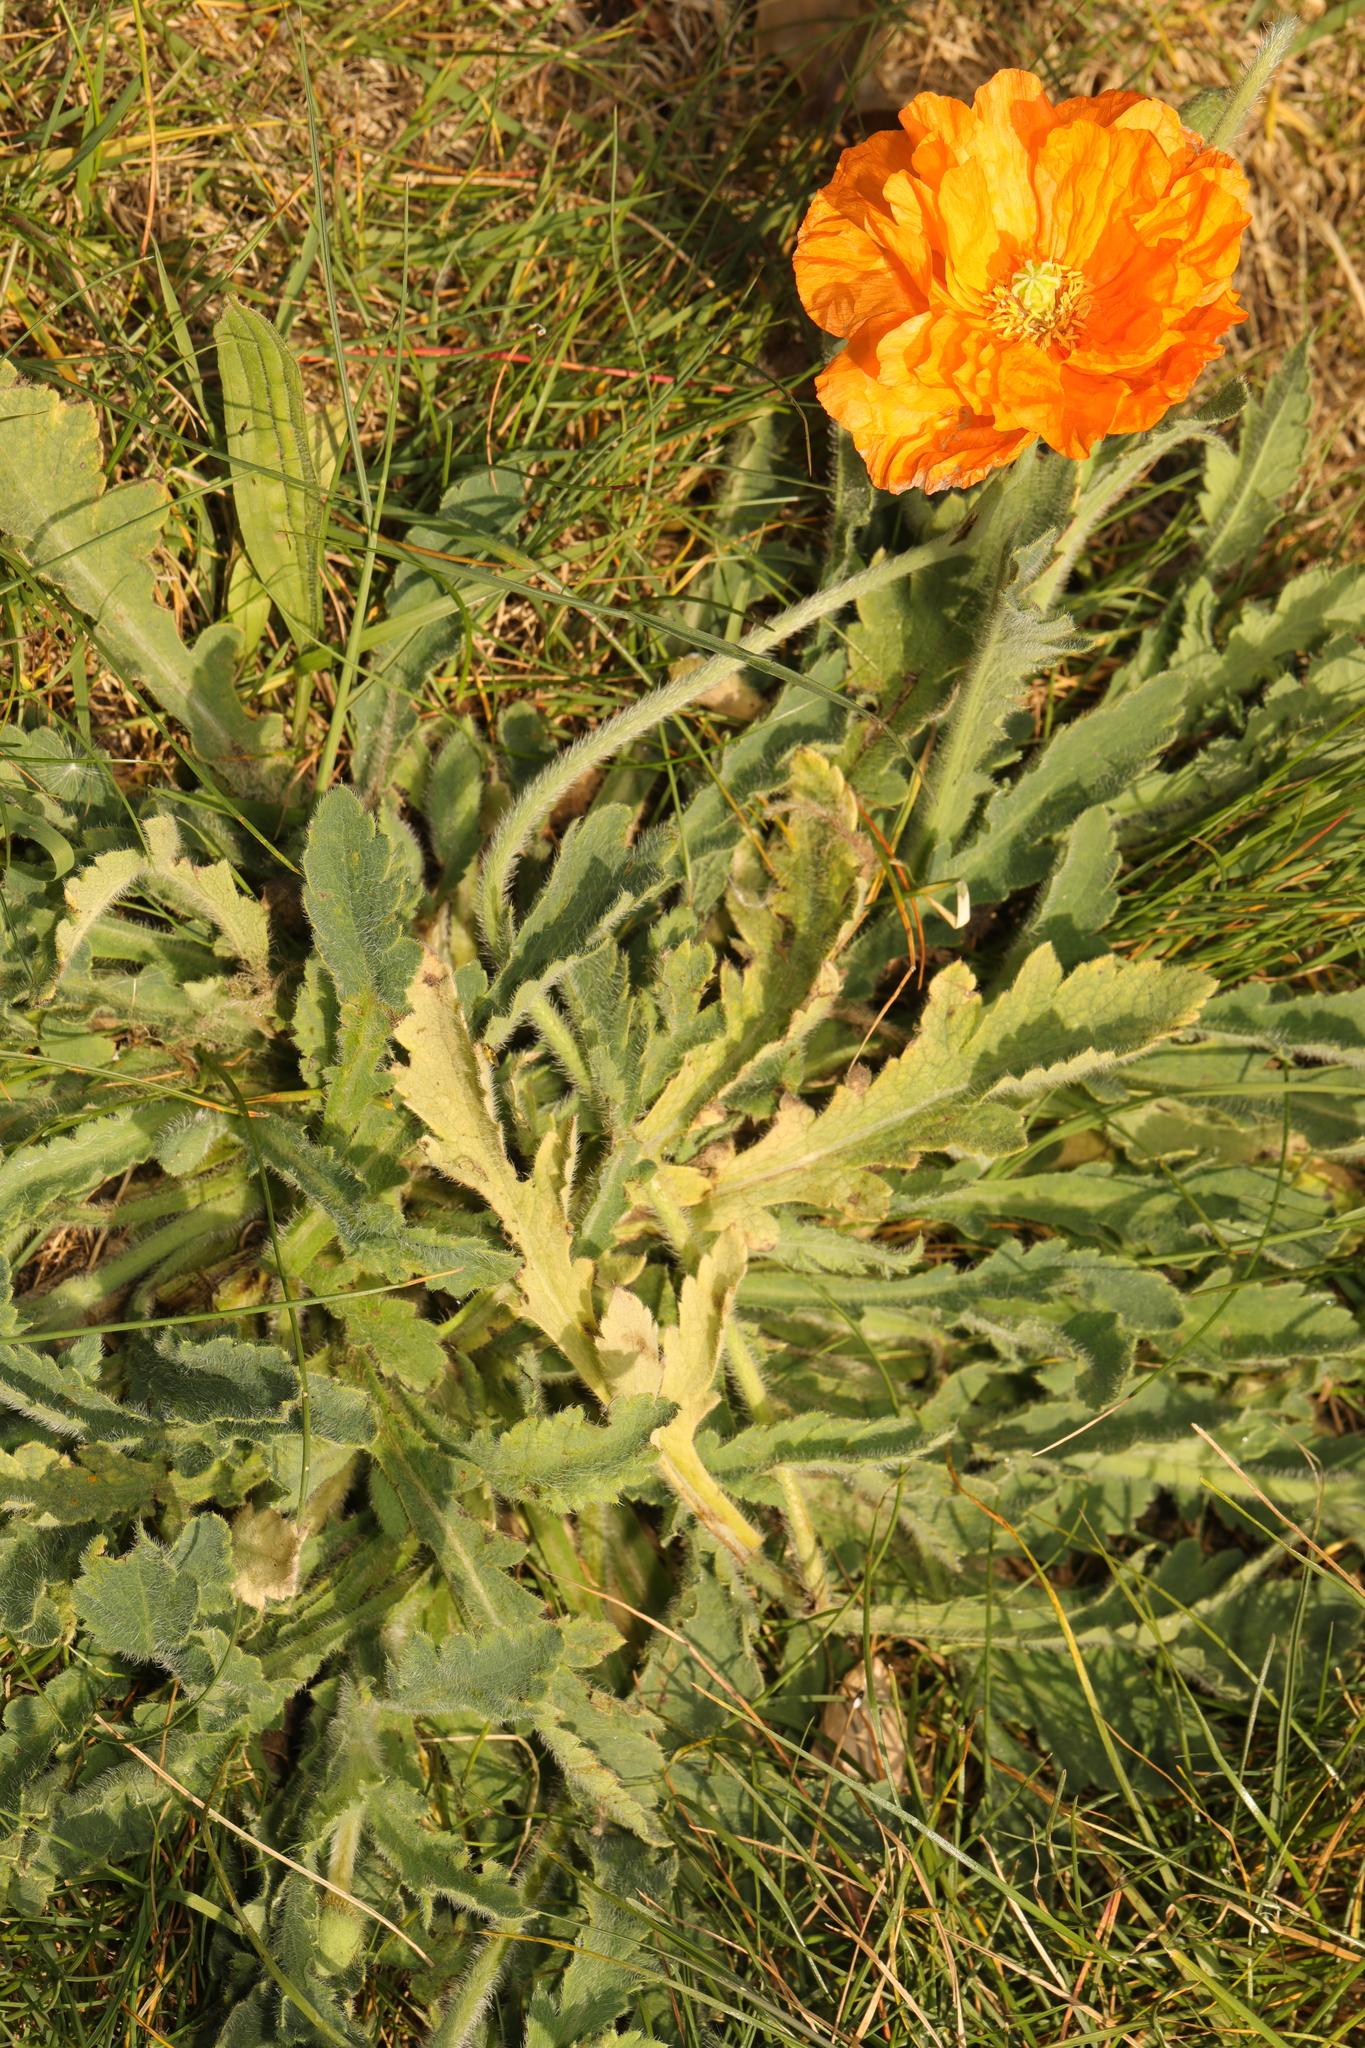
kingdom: Plantae
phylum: Tracheophyta
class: Magnoliopsida
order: Ranunculales
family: Papaveraceae
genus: Papaver
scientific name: Papaver atlanticum
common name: Atlas poppy
